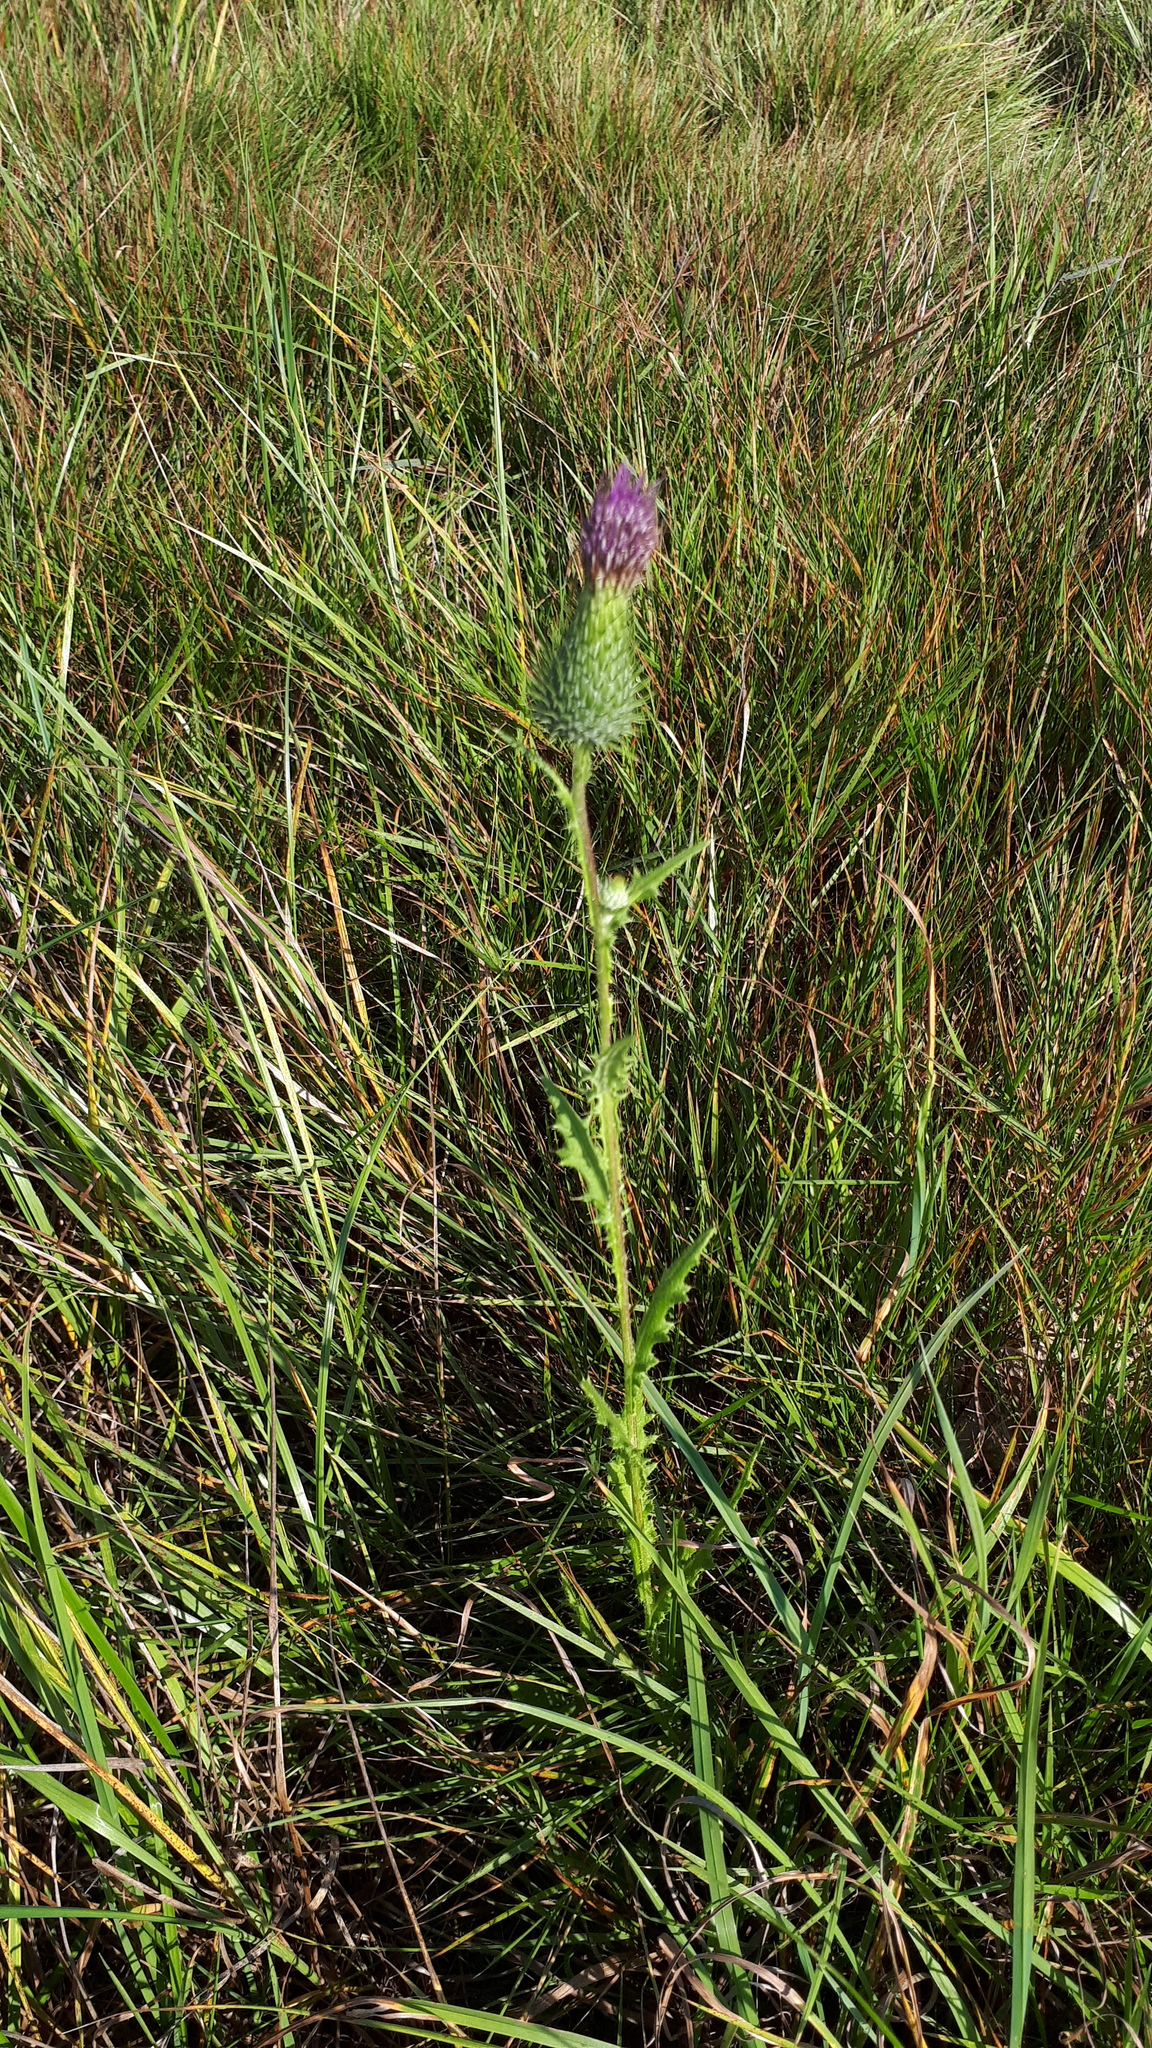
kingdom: Plantae
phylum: Tracheophyta
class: Magnoliopsida
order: Asterales
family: Asteraceae
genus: Cirsium
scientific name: Cirsium vulgare
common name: Bull thistle
